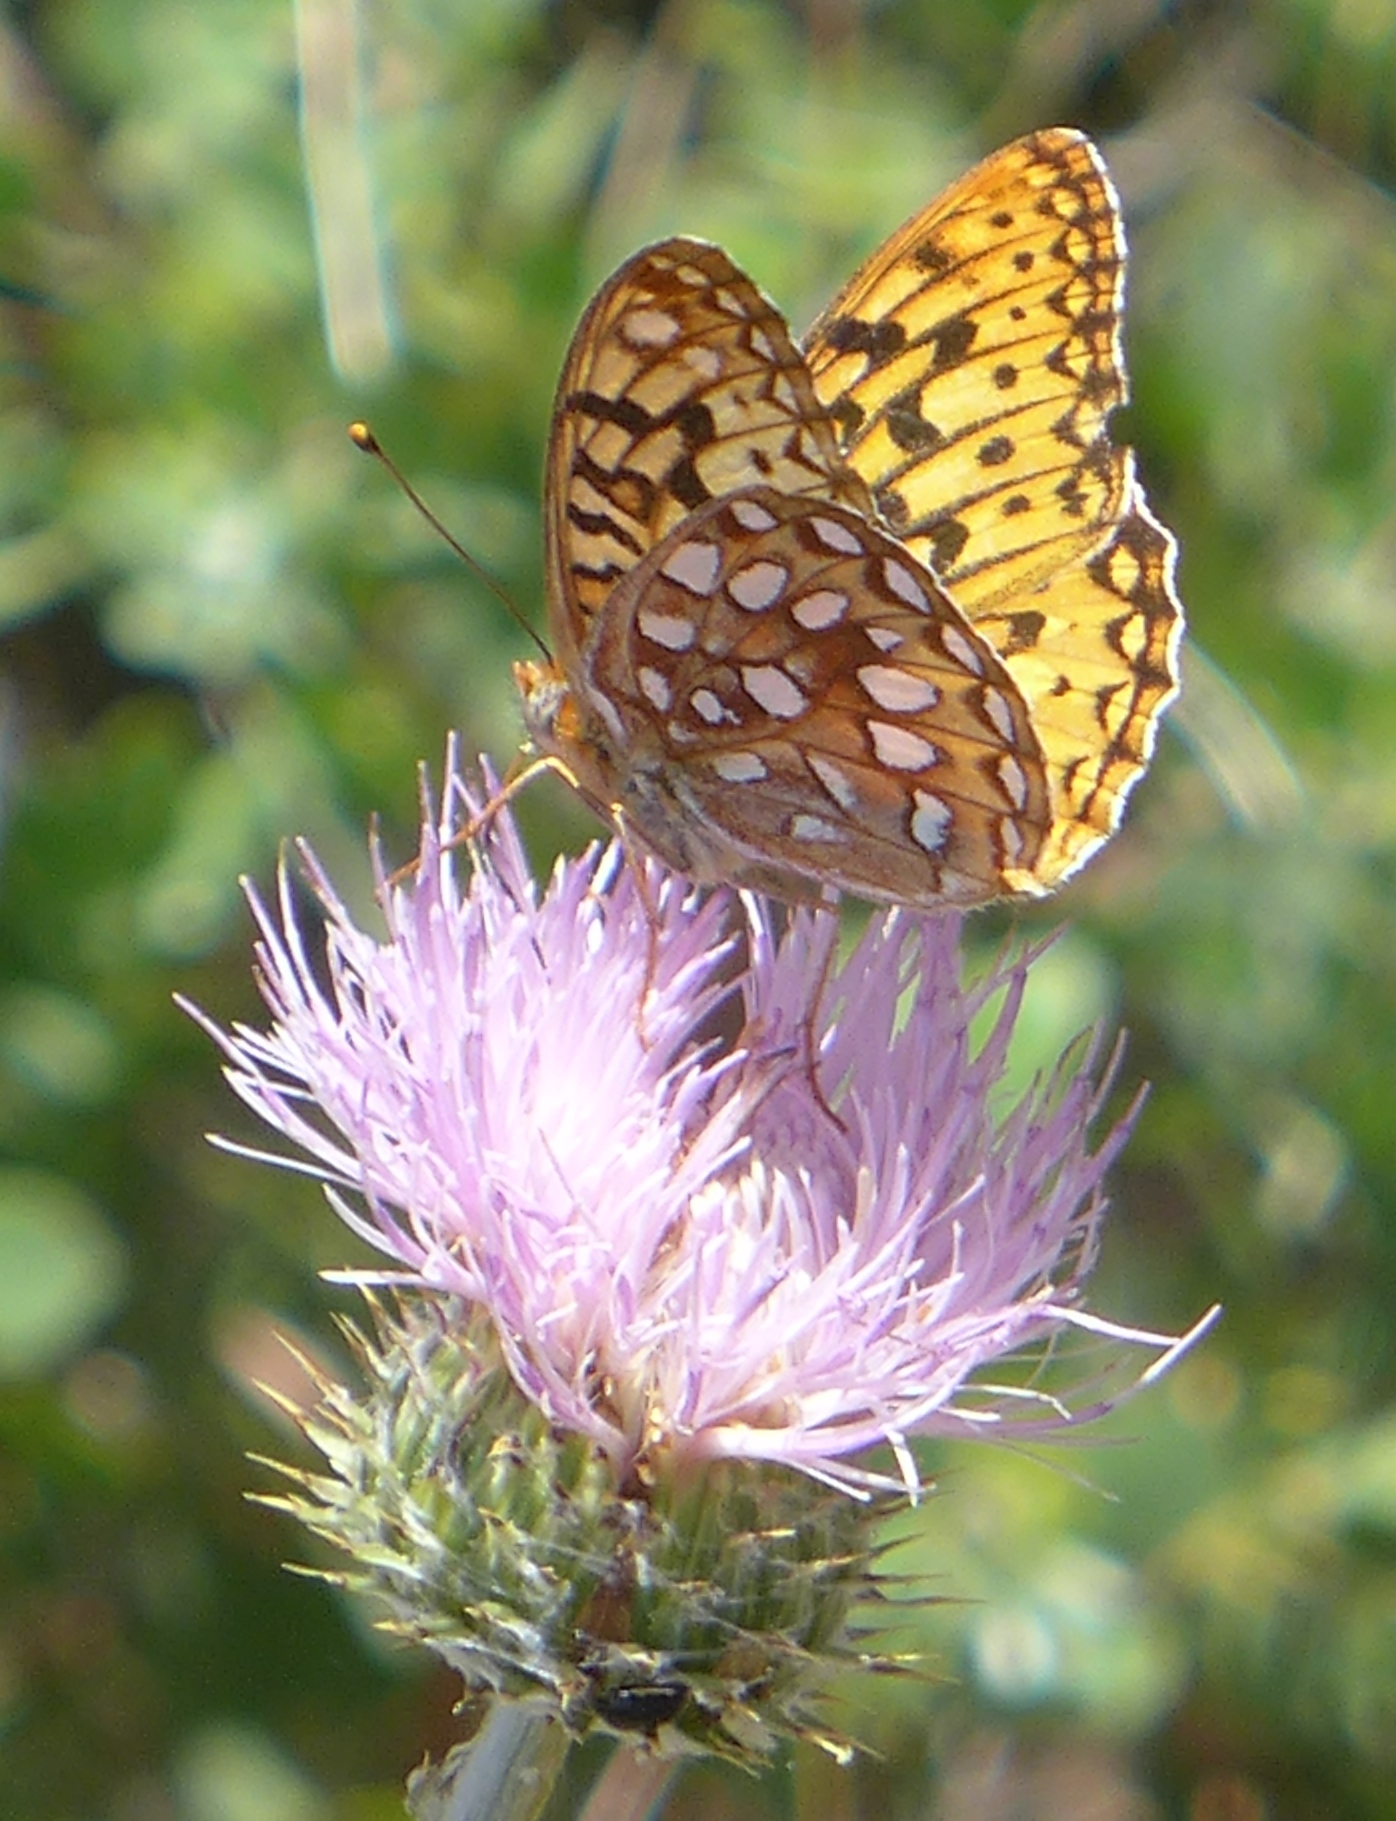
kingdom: Animalia
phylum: Arthropoda
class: Insecta
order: Lepidoptera
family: Nymphalidae
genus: Argynnis
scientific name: Argynnis coronis
